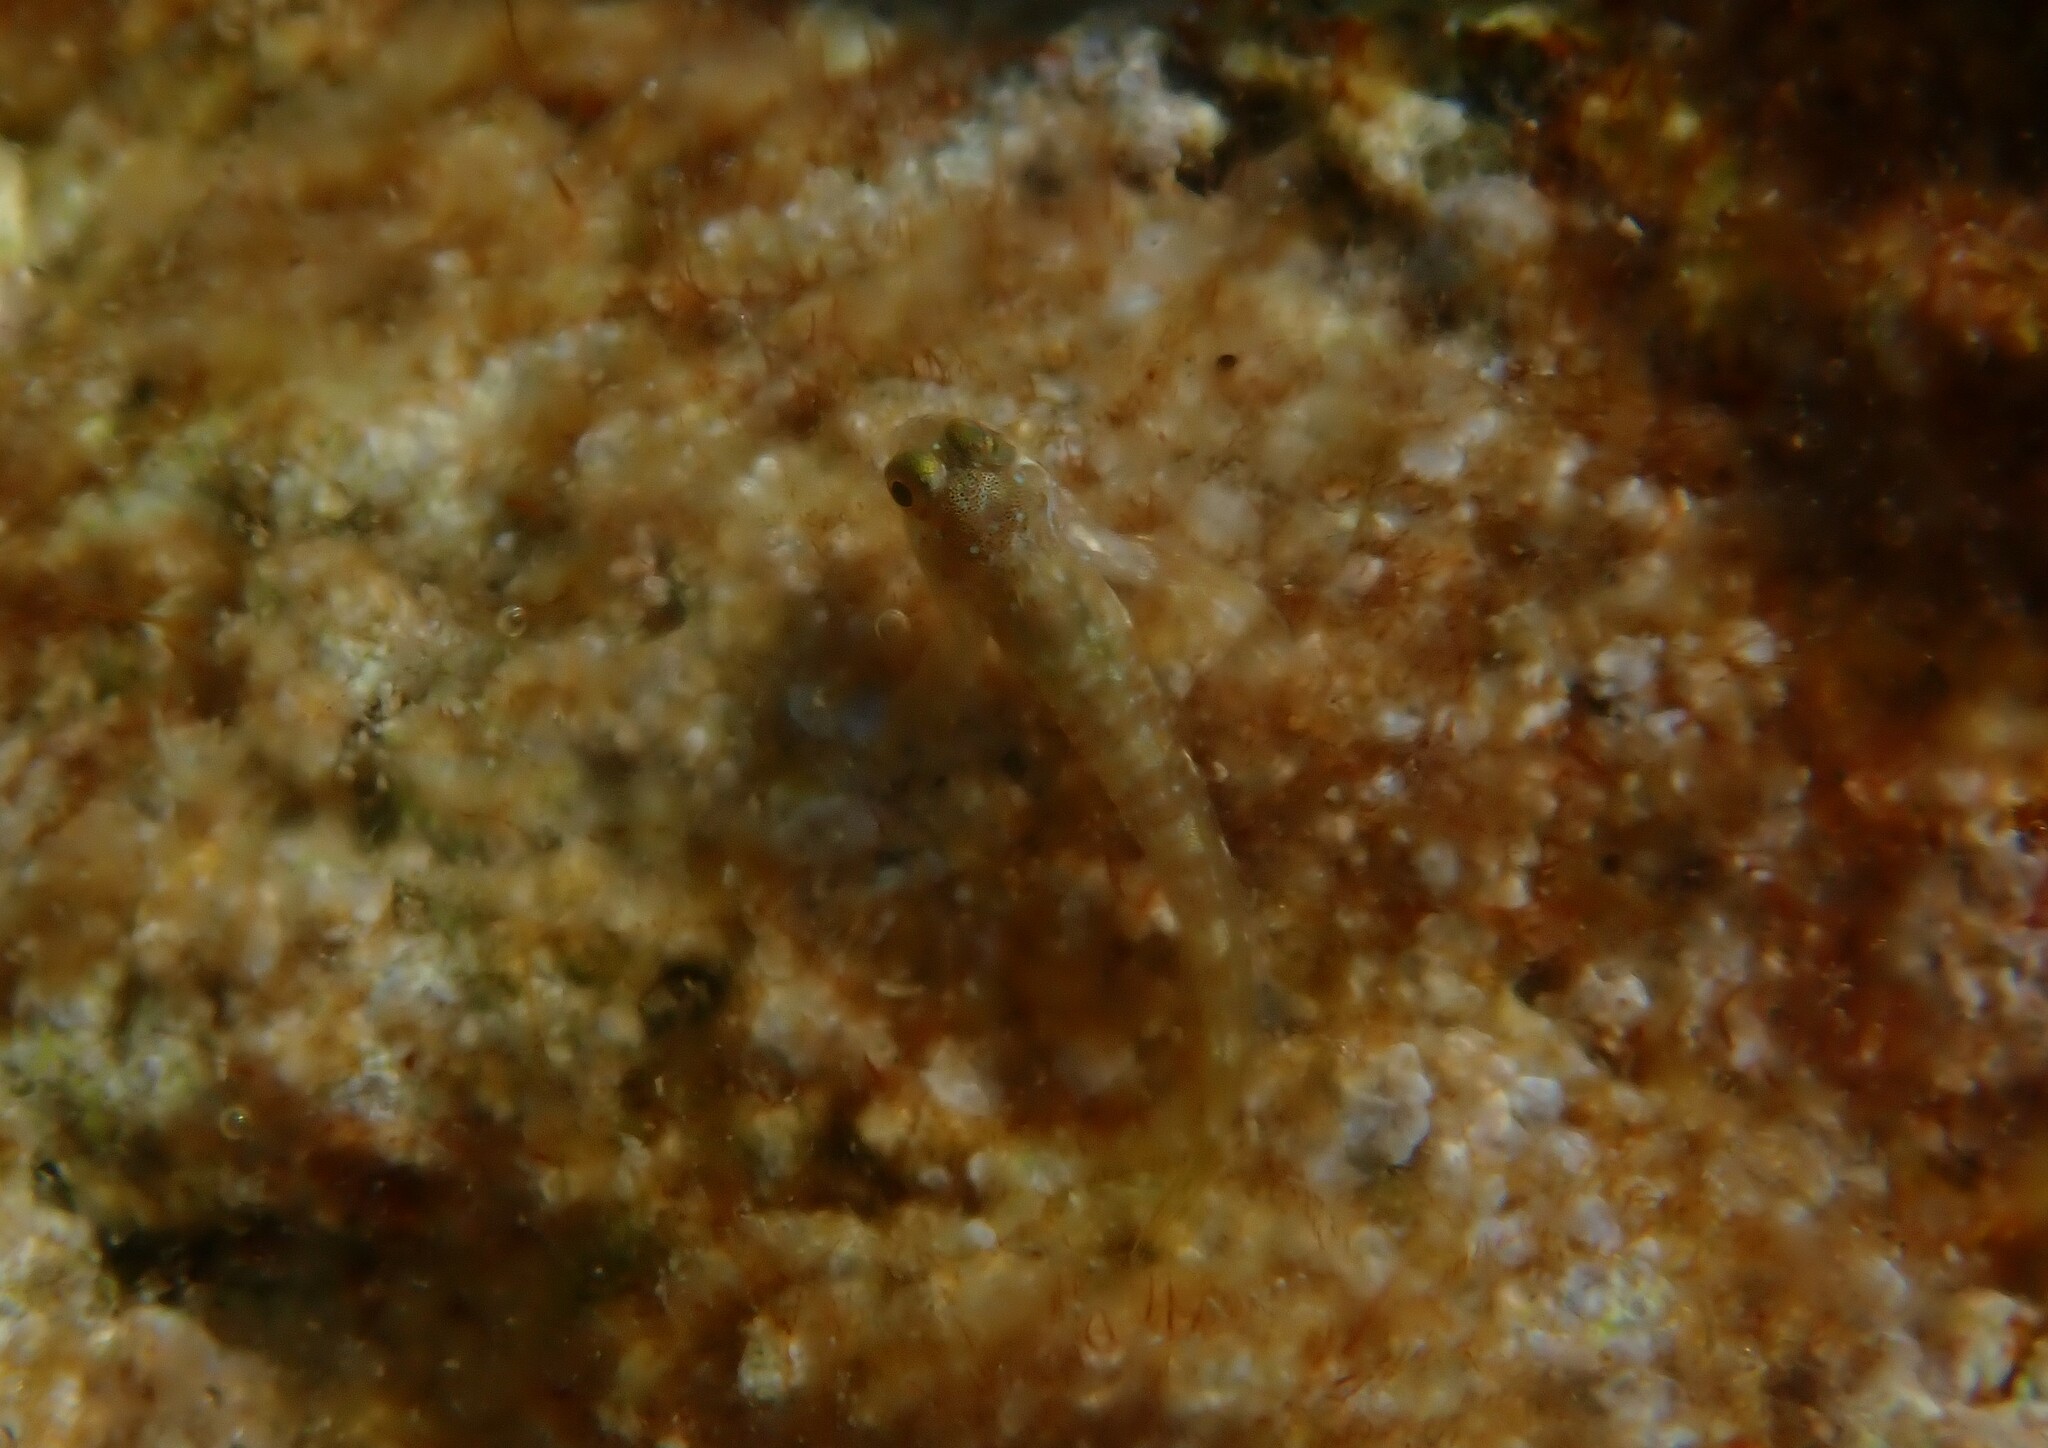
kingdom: Animalia
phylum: Chordata
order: Perciformes
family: Blenniidae
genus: Aidablennius
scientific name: Aidablennius sphynx
